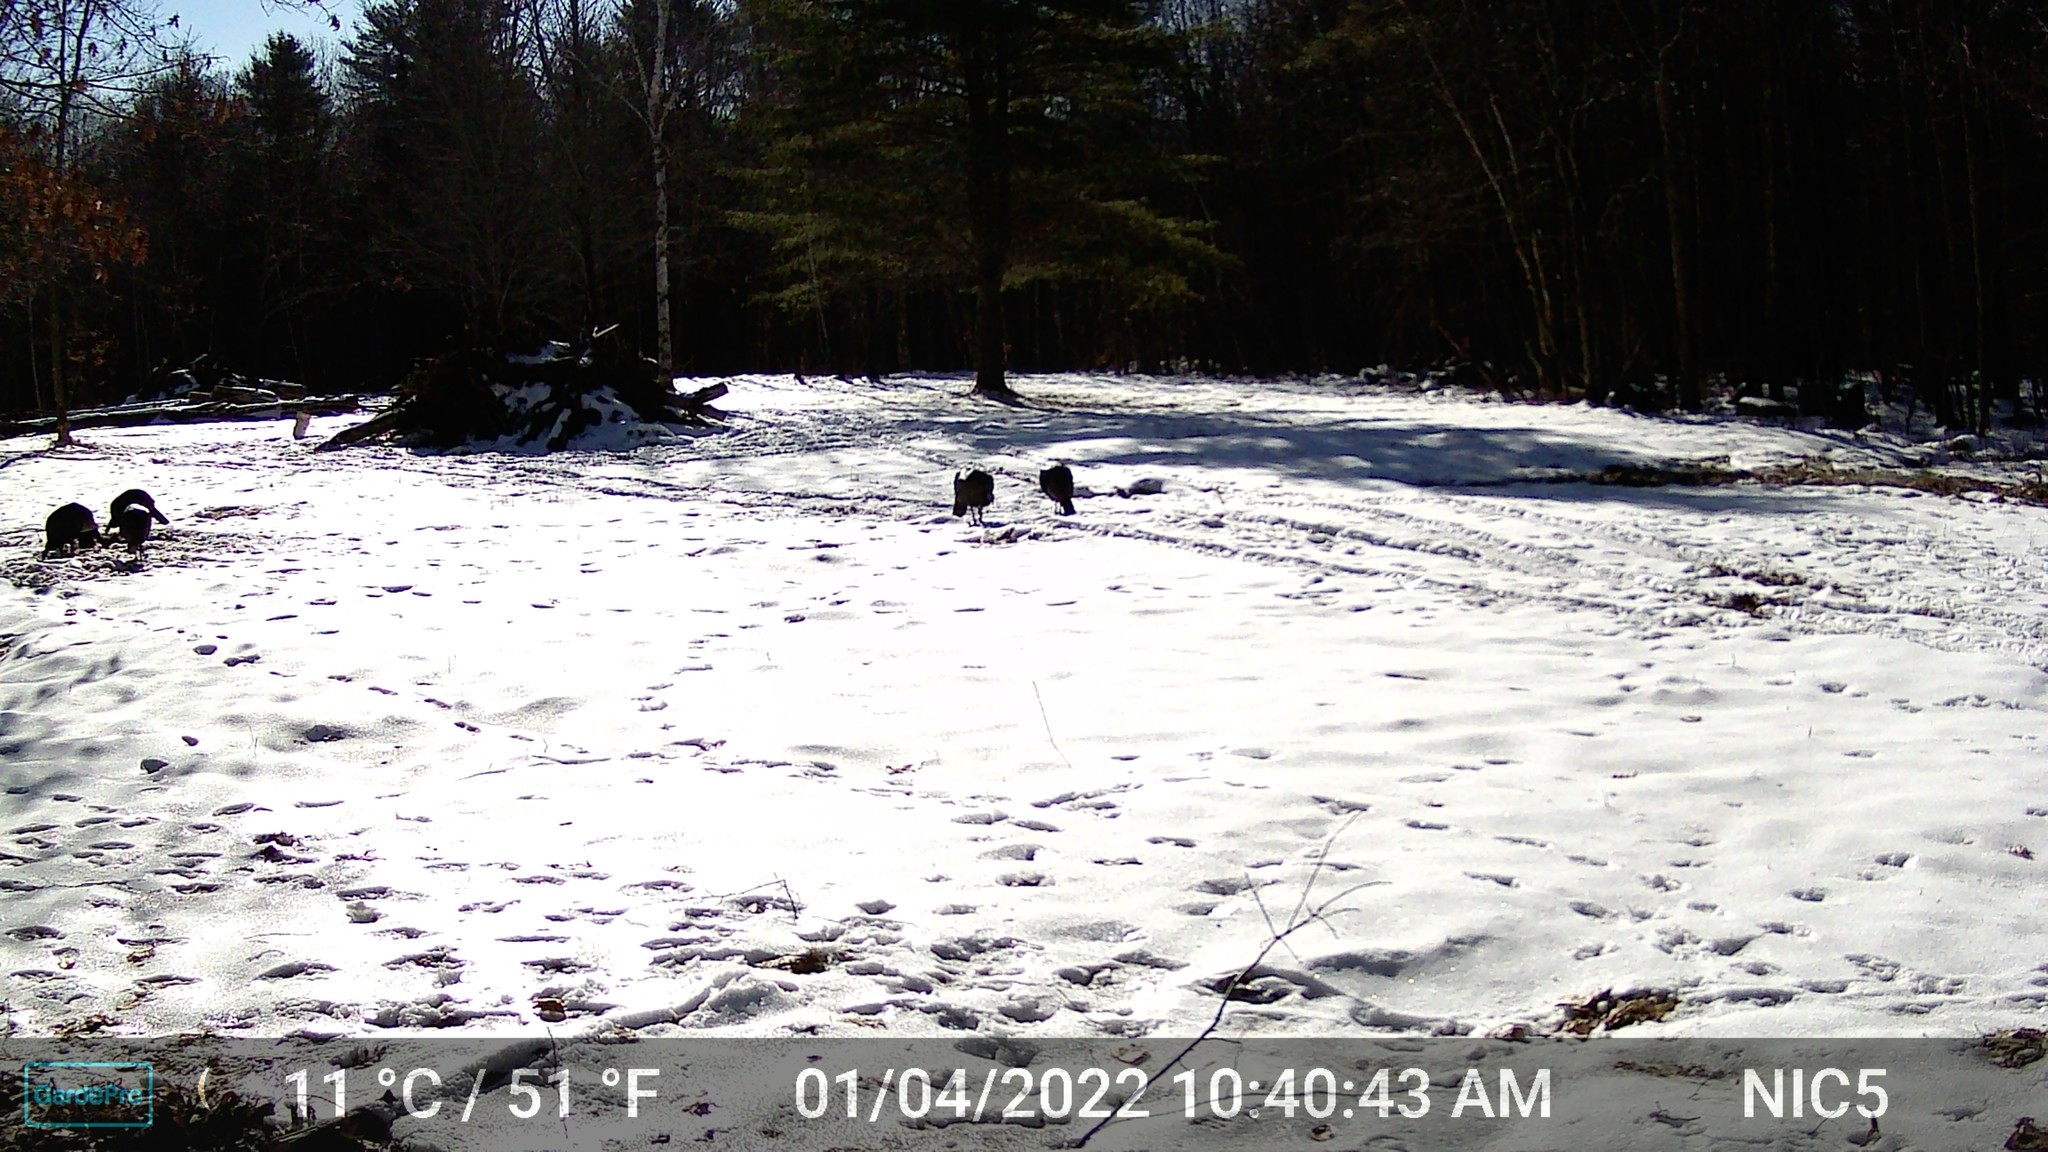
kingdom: Animalia
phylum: Chordata
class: Aves
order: Galliformes
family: Phasianidae
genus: Meleagris
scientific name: Meleagris gallopavo
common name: Wild turkey
